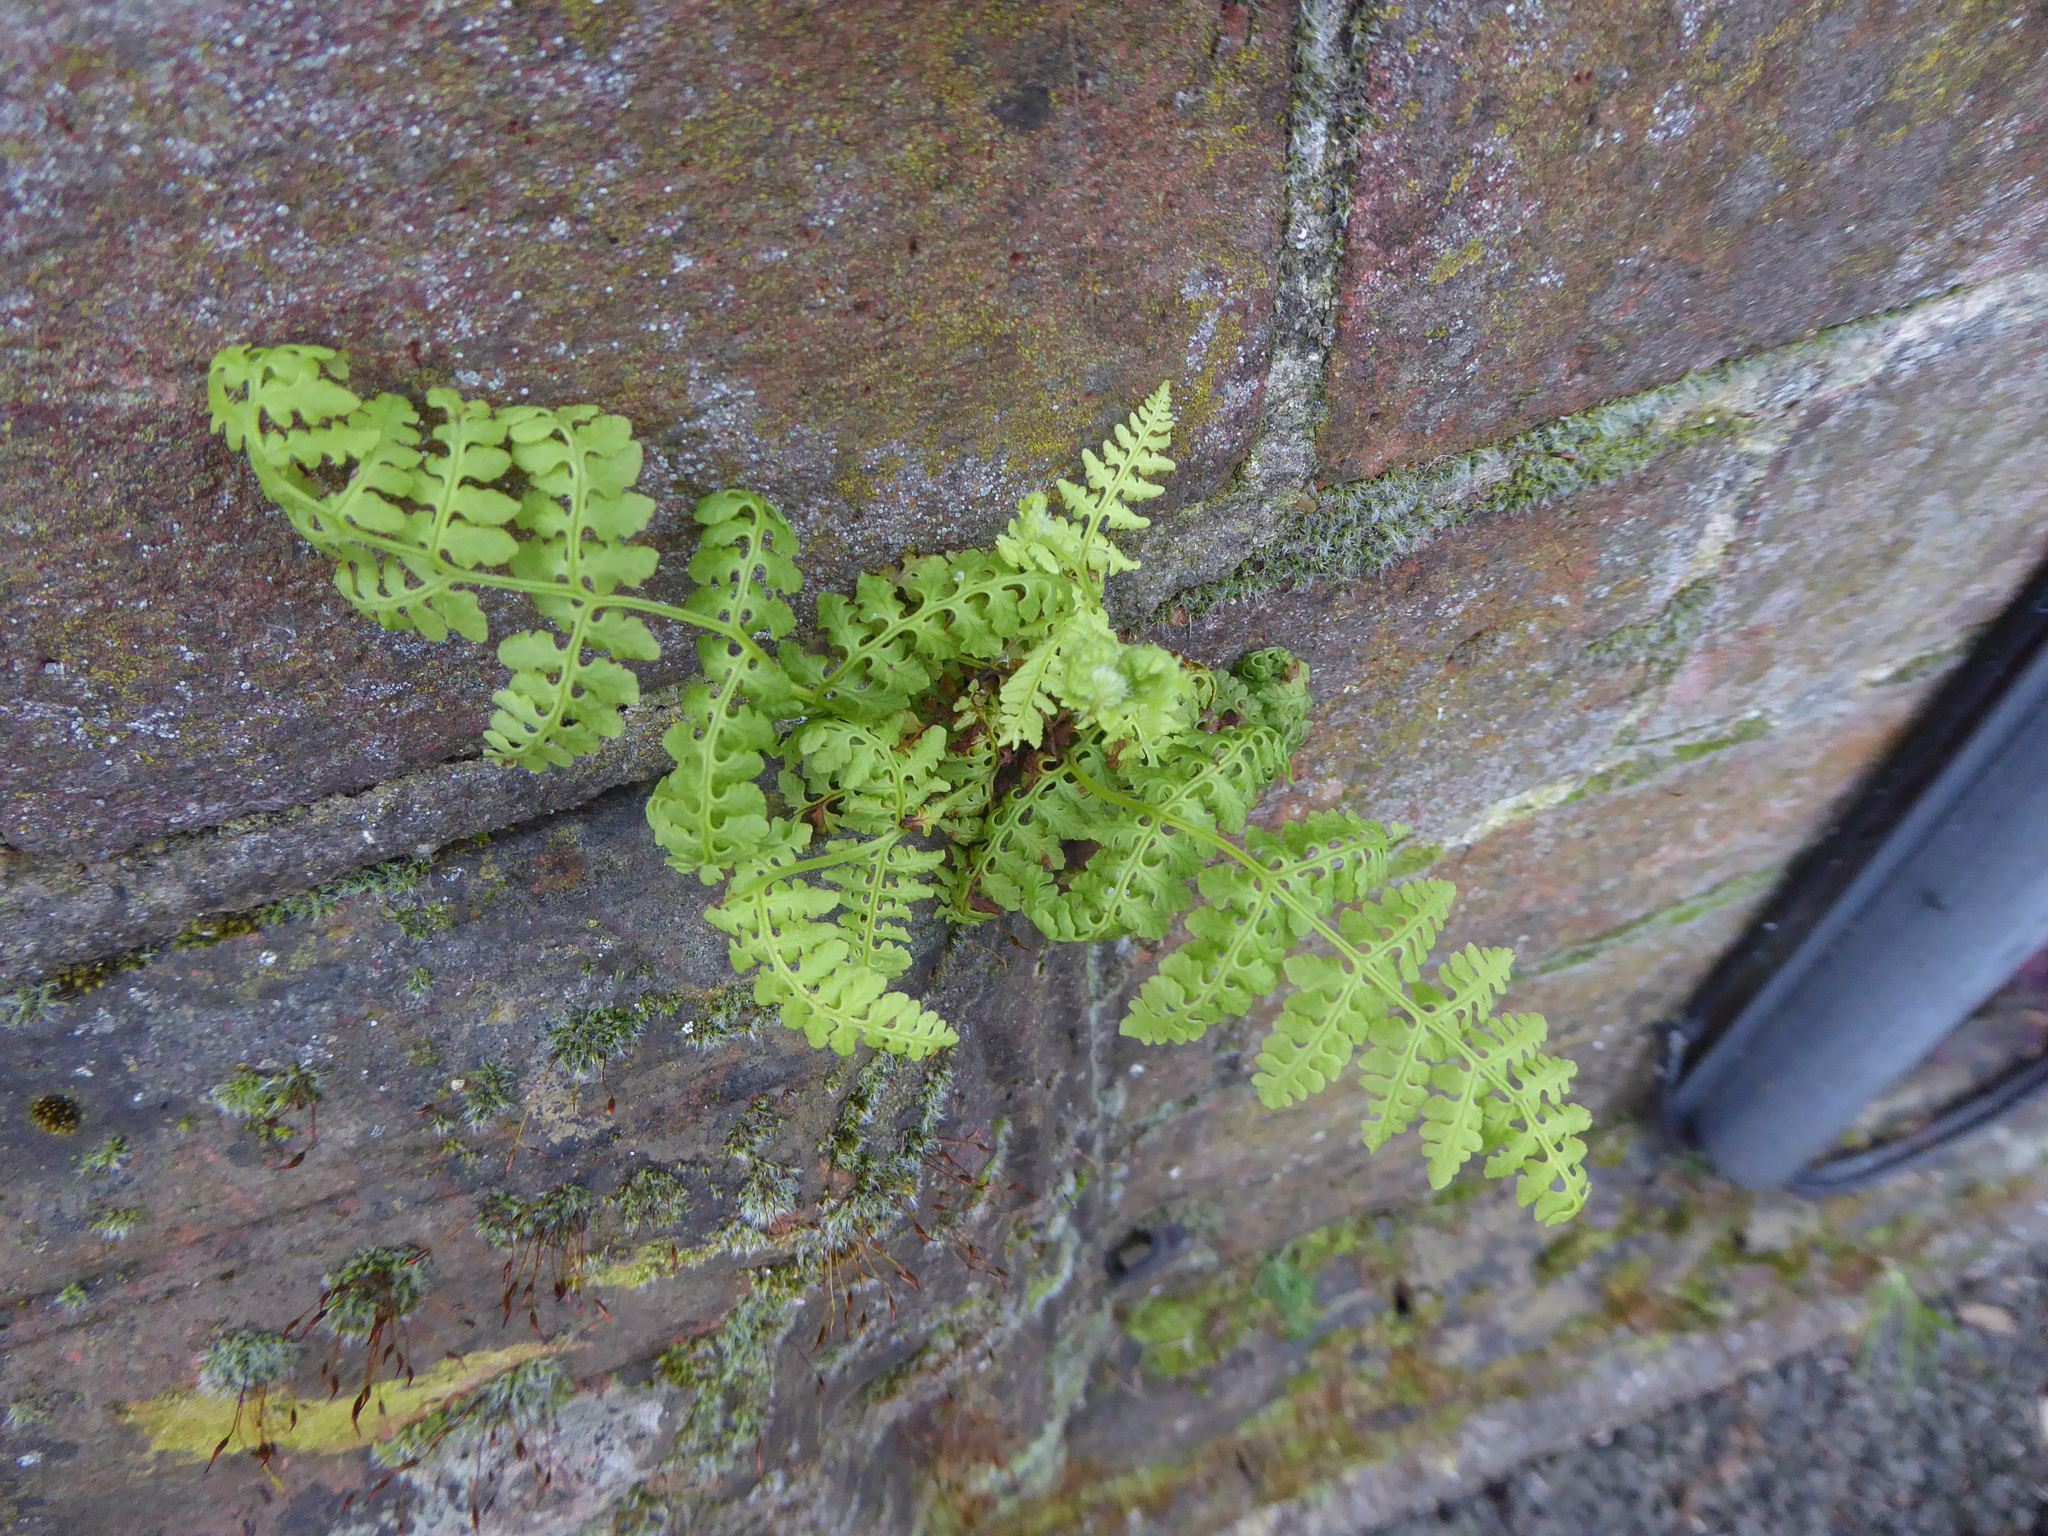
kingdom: Plantae
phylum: Tracheophyta
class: Polypodiopsida
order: Polypodiales
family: Dennstaedtiaceae
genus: Pteridium
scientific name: Pteridium aquilinum
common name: Bracken
